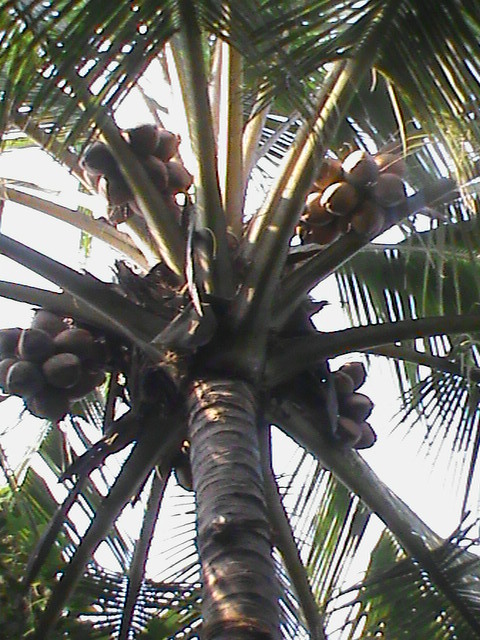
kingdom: Plantae
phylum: Tracheophyta
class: Liliopsida
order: Arecales
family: Arecaceae
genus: Cocos
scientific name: Cocos nucifera
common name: Coconut palm
